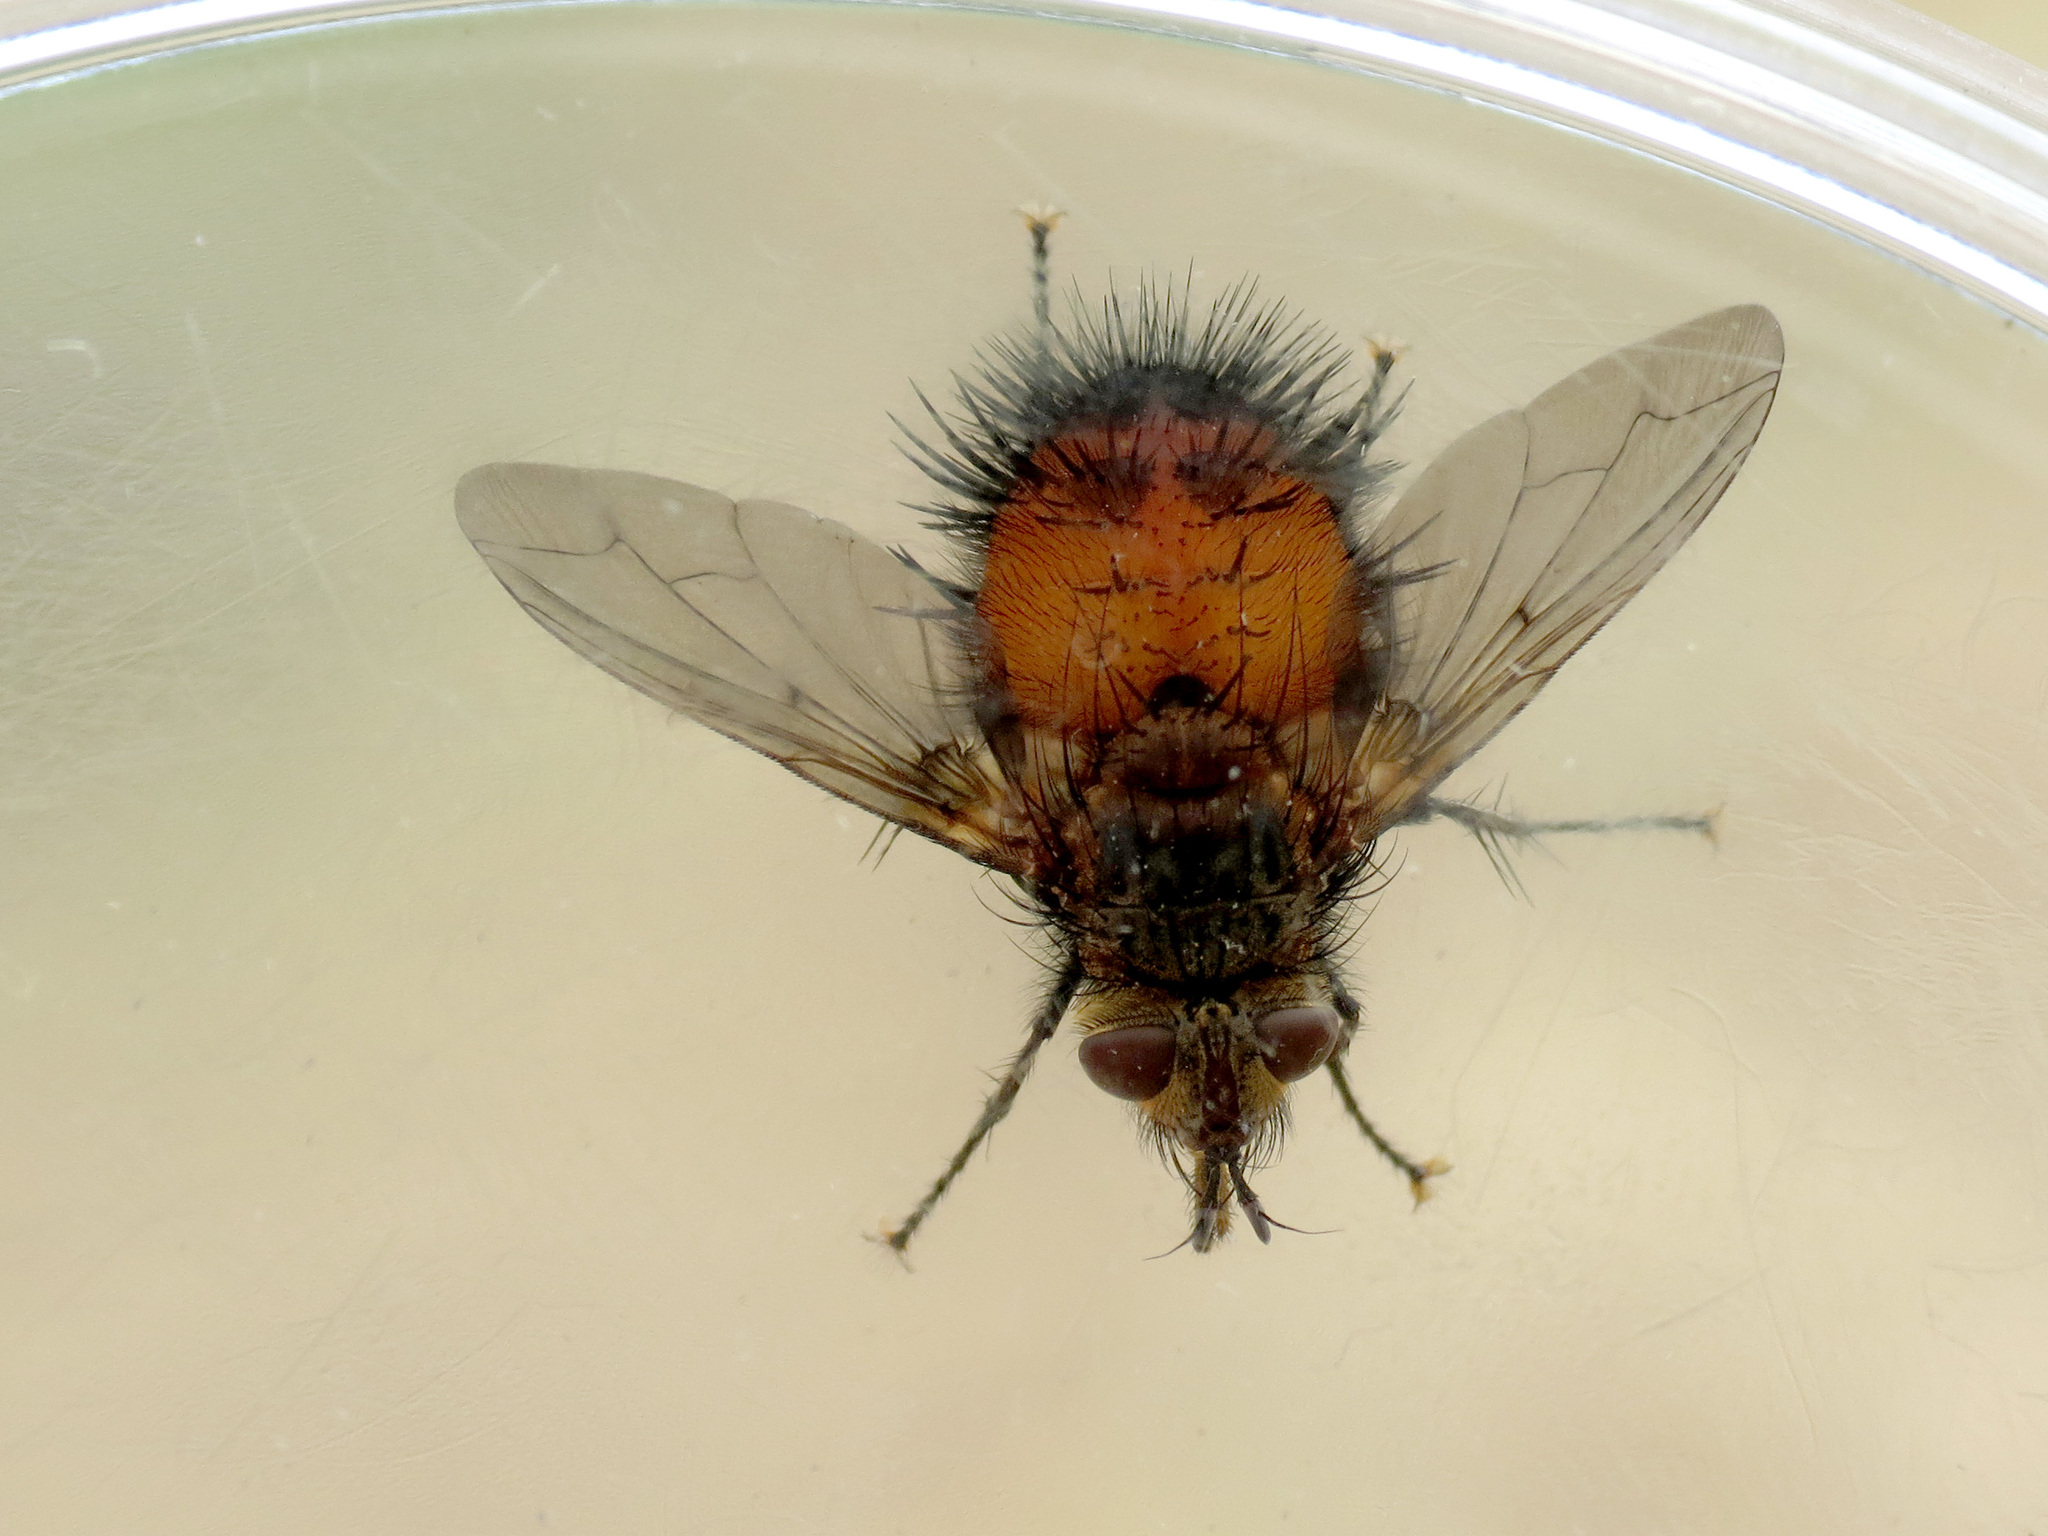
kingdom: Animalia
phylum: Arthropoda
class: Insecta
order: Diptera
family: Tachinidae
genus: Protodejeania
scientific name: Protodejeania hystricosa
